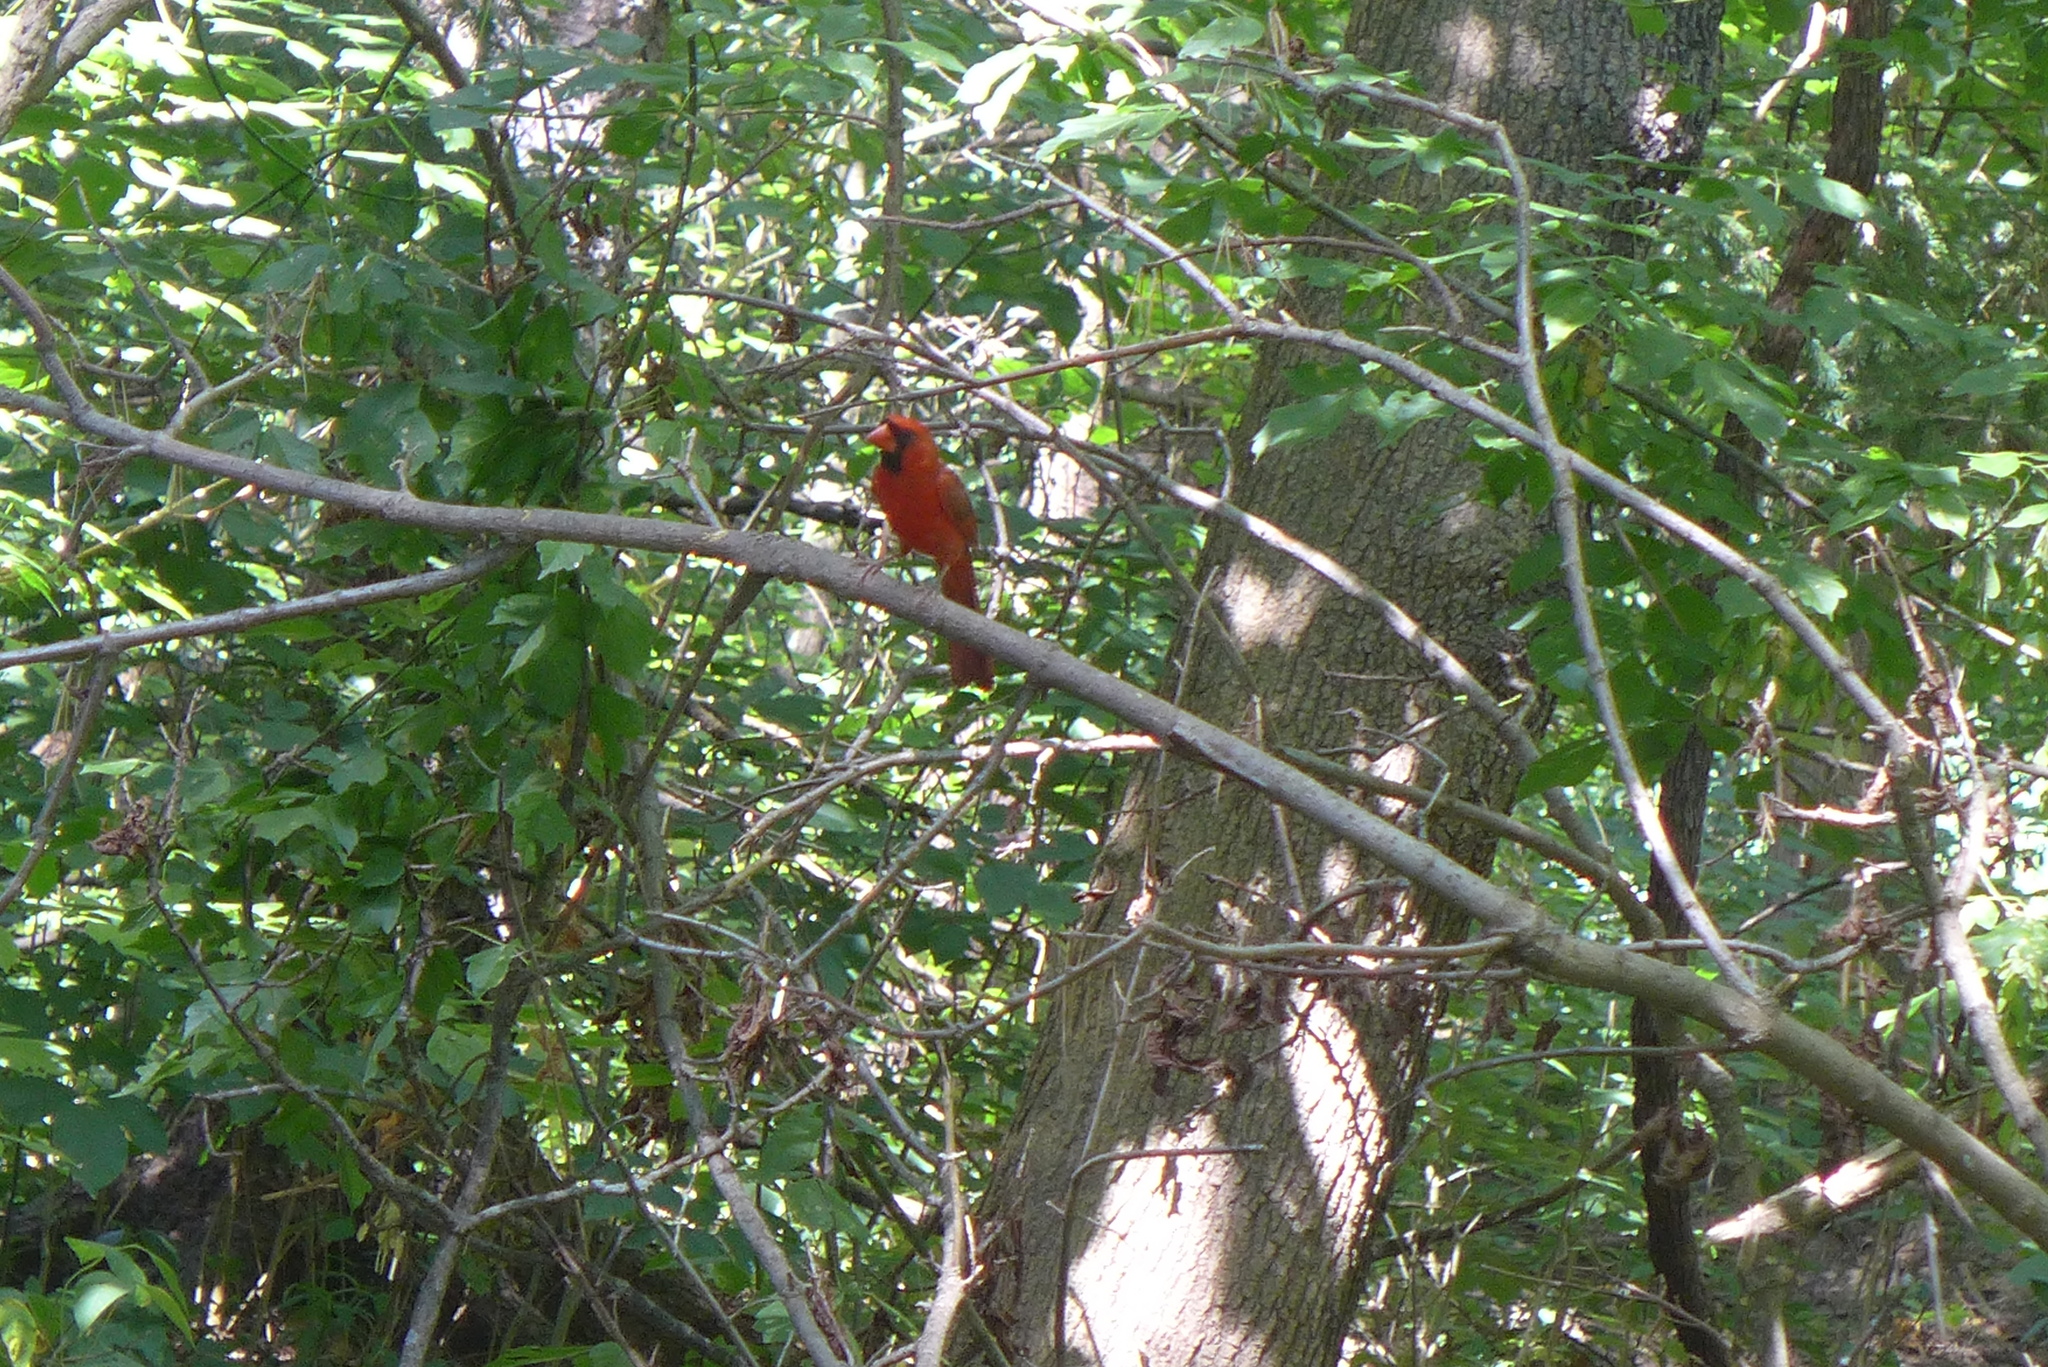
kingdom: Animalia
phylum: Chordata
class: Aves
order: Passeriformes
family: Cardinalidae
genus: Cardinalis
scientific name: Cardinalis cardinalis
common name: Northern cardinal
